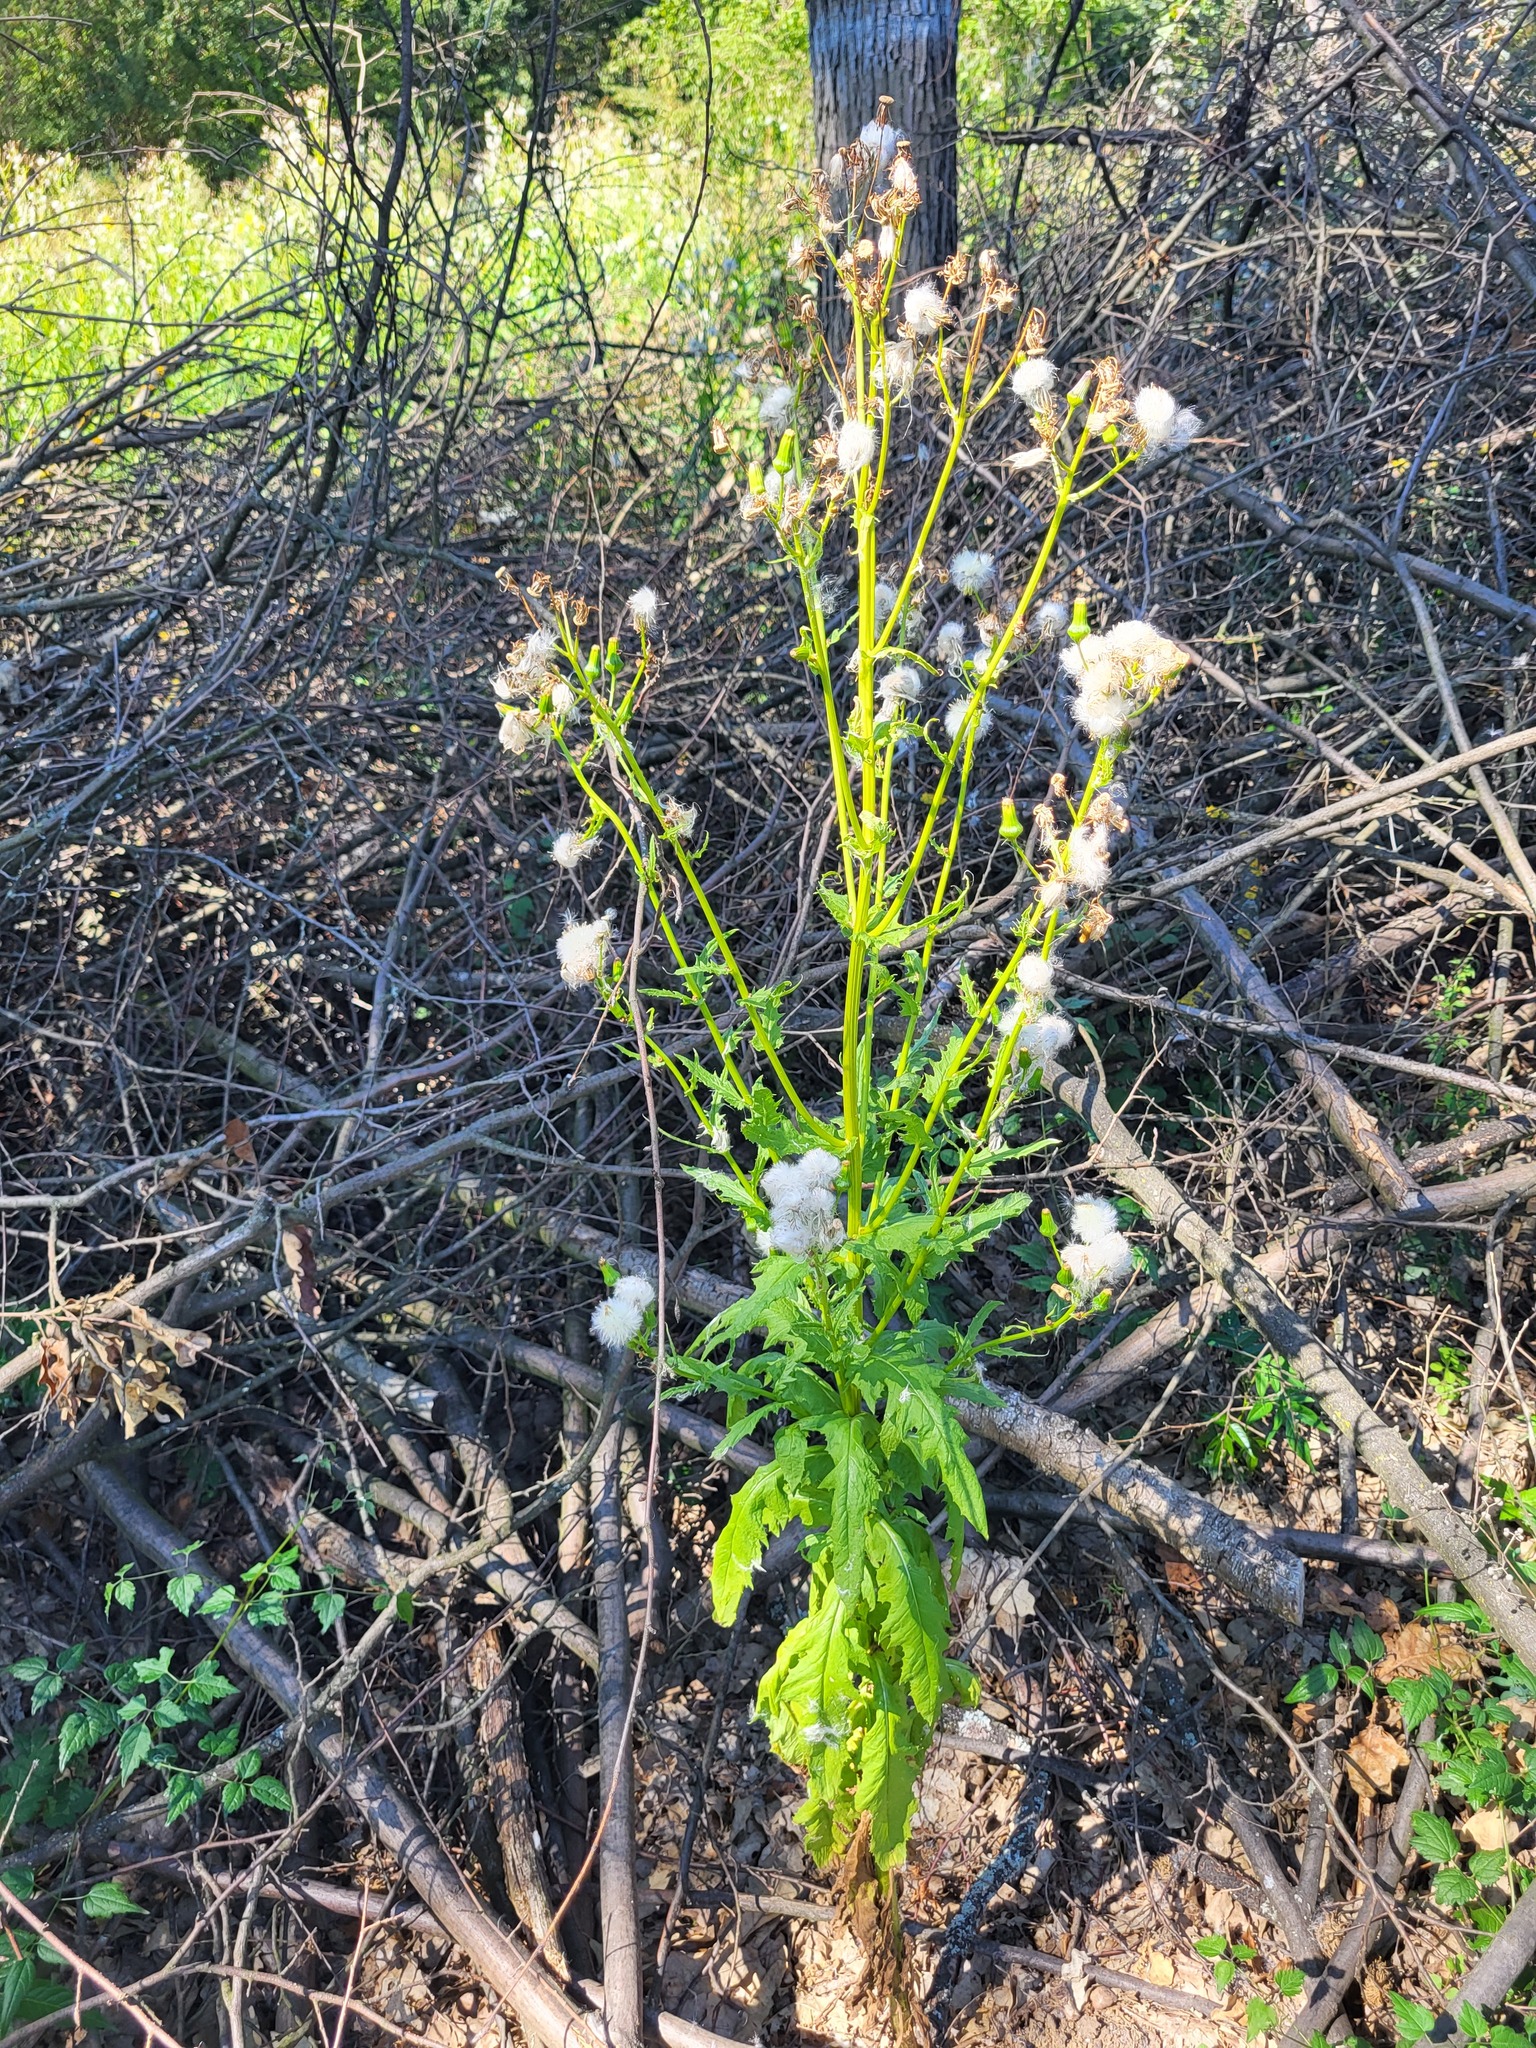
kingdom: Plantae
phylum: Tracheophyta
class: Magnoliopsida
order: Asterales
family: Asteraceae
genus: Erechtites
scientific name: Erechtites hieraciifolius
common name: American burnweed
